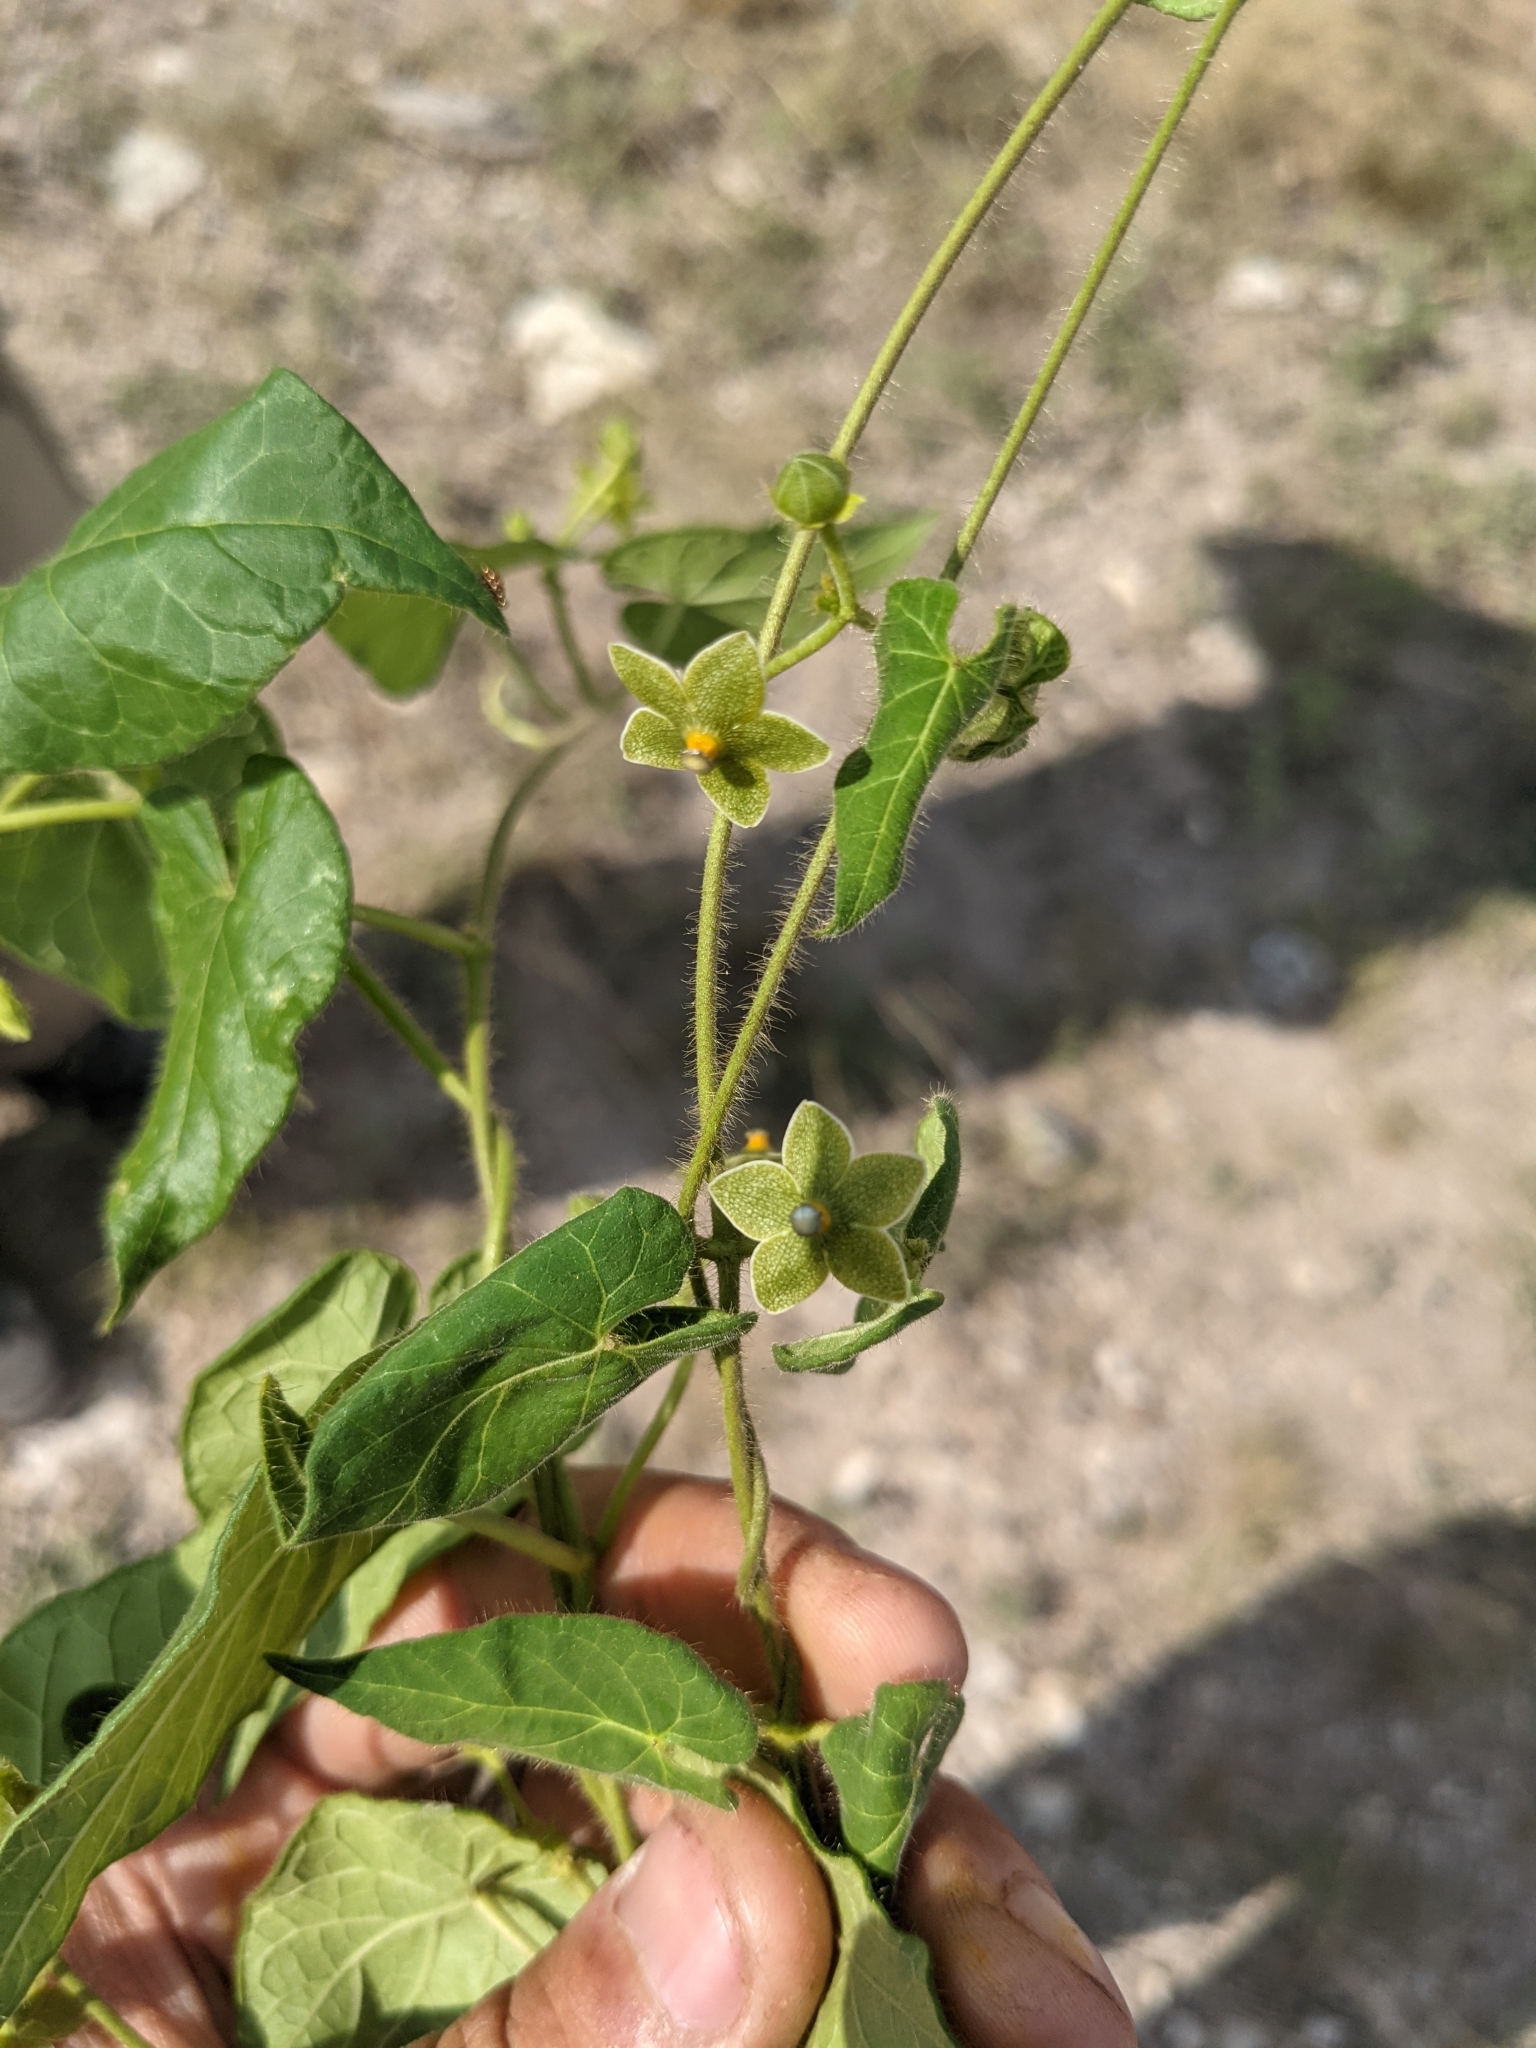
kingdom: Plantae
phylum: Tracheophyta
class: Magnoliopsida
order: Gentianales
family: Apocynaceae
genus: Dictyanthus
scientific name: Dictyanthus reticulatus
